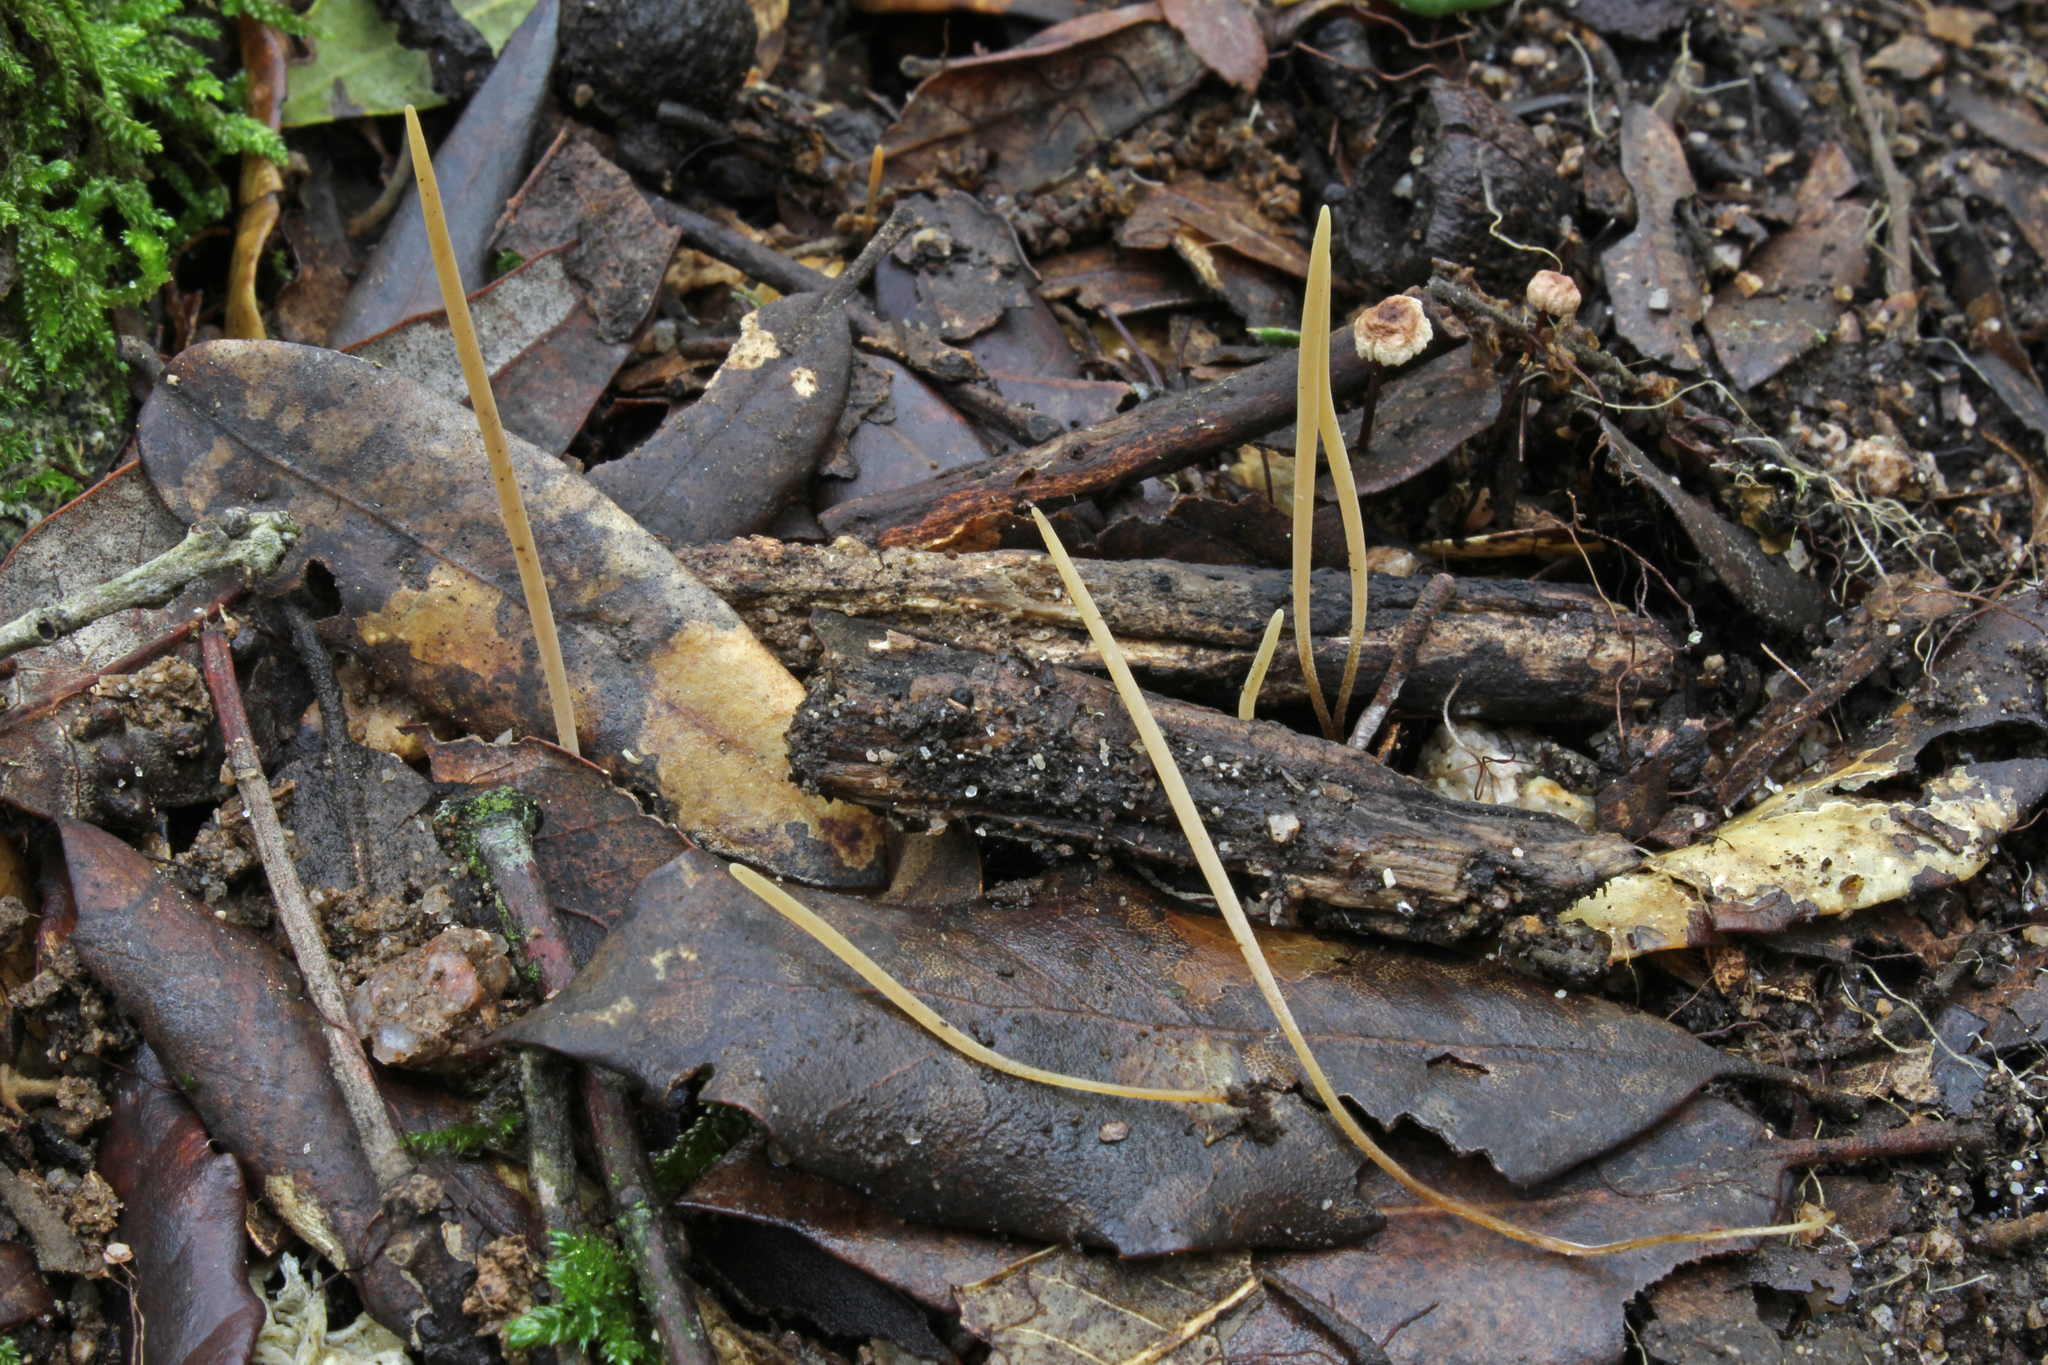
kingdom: Fungi
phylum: Basidiomycota
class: Agaricomycetes
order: Agaricales
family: Typhulaceae
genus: Typhula
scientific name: Typhula juncea
